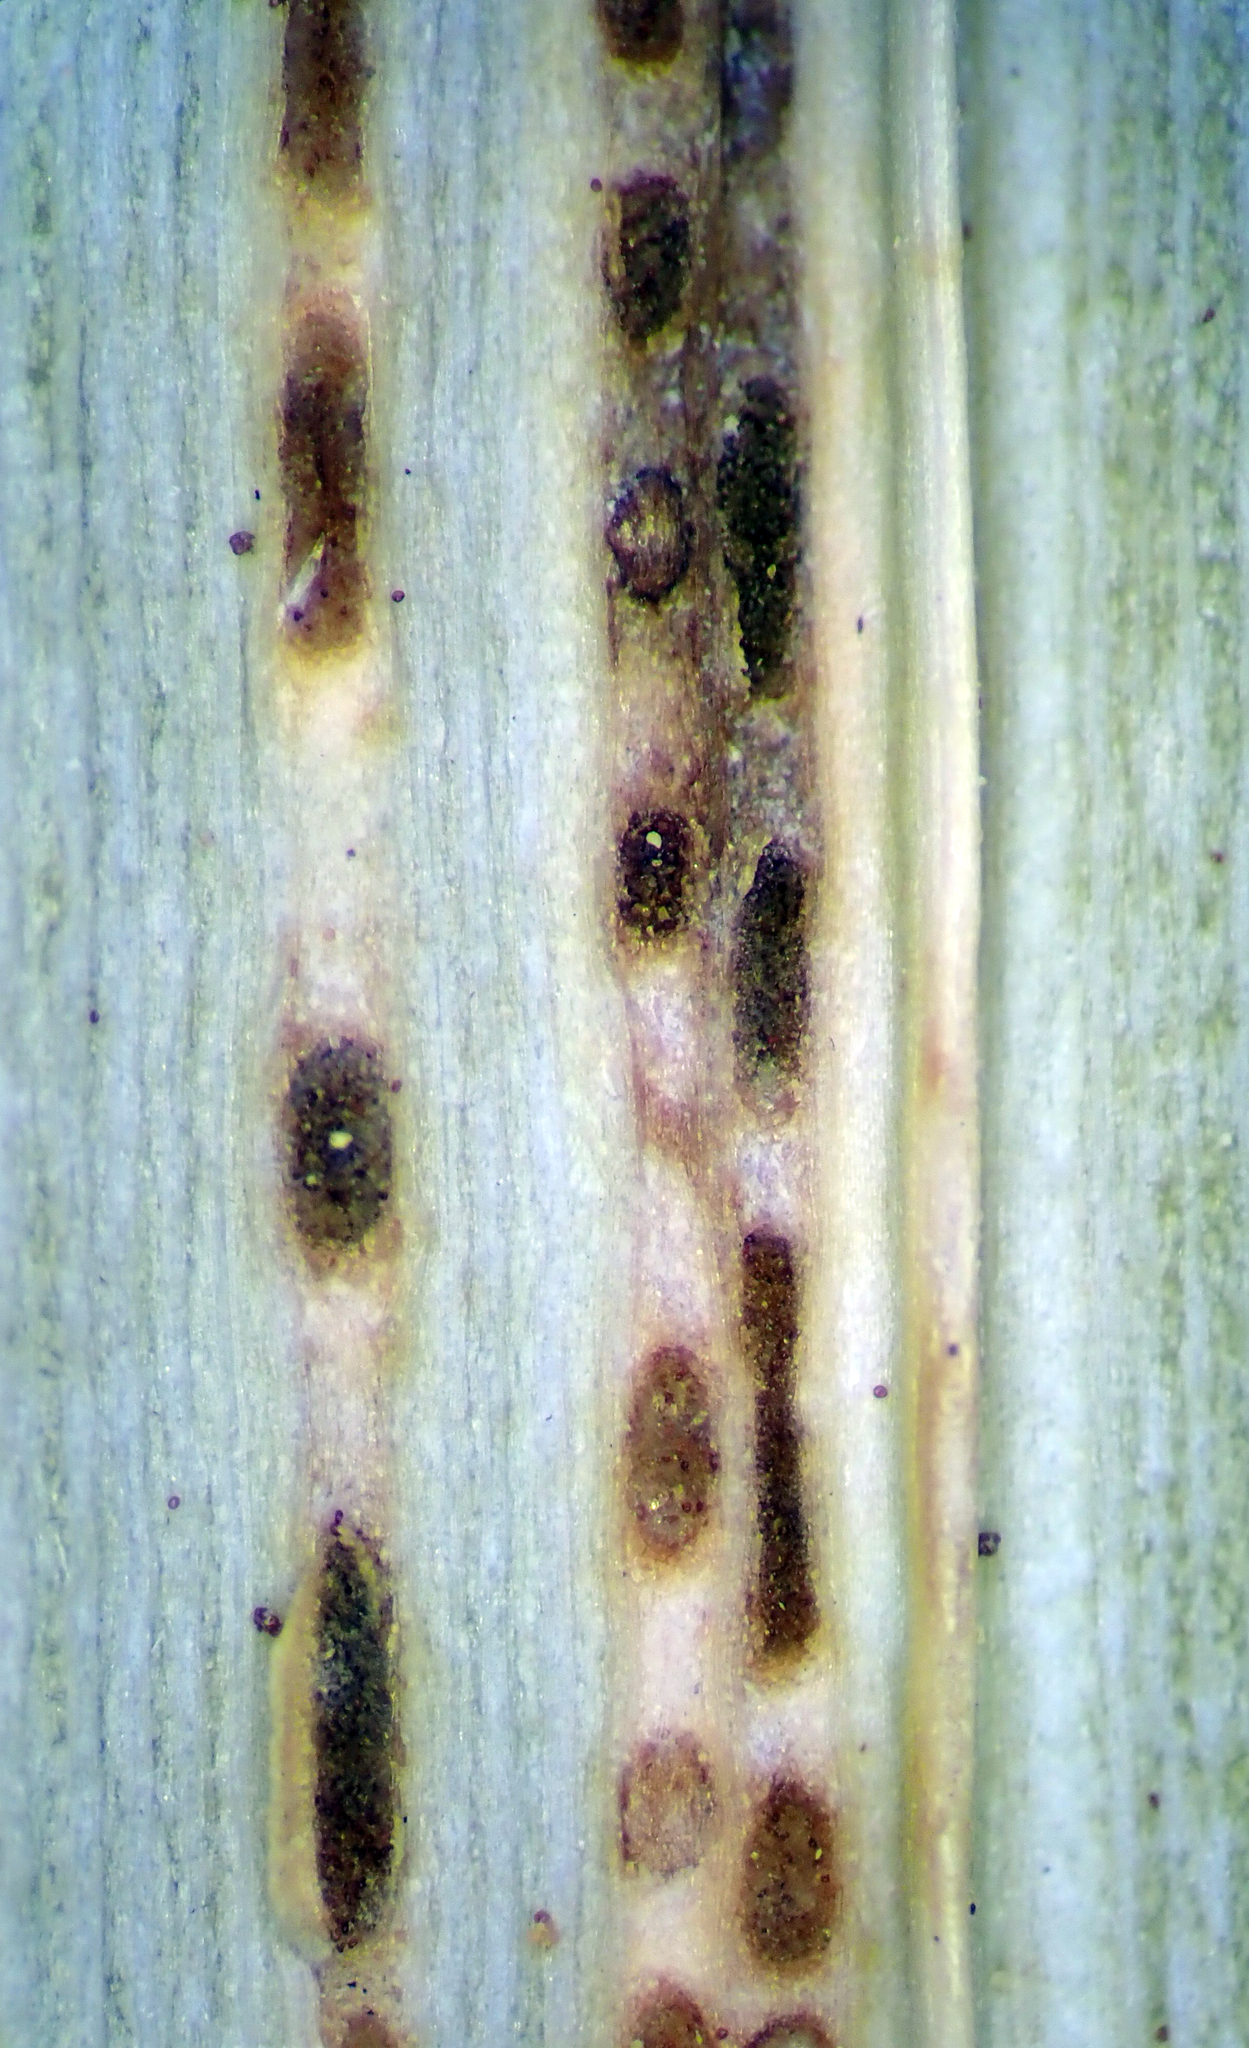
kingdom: Fungi
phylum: Basidiomycota
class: Pucciniomycetes
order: Pucciniales
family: Pucciniaceae
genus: Puccinia
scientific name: Puccinia chathamica
